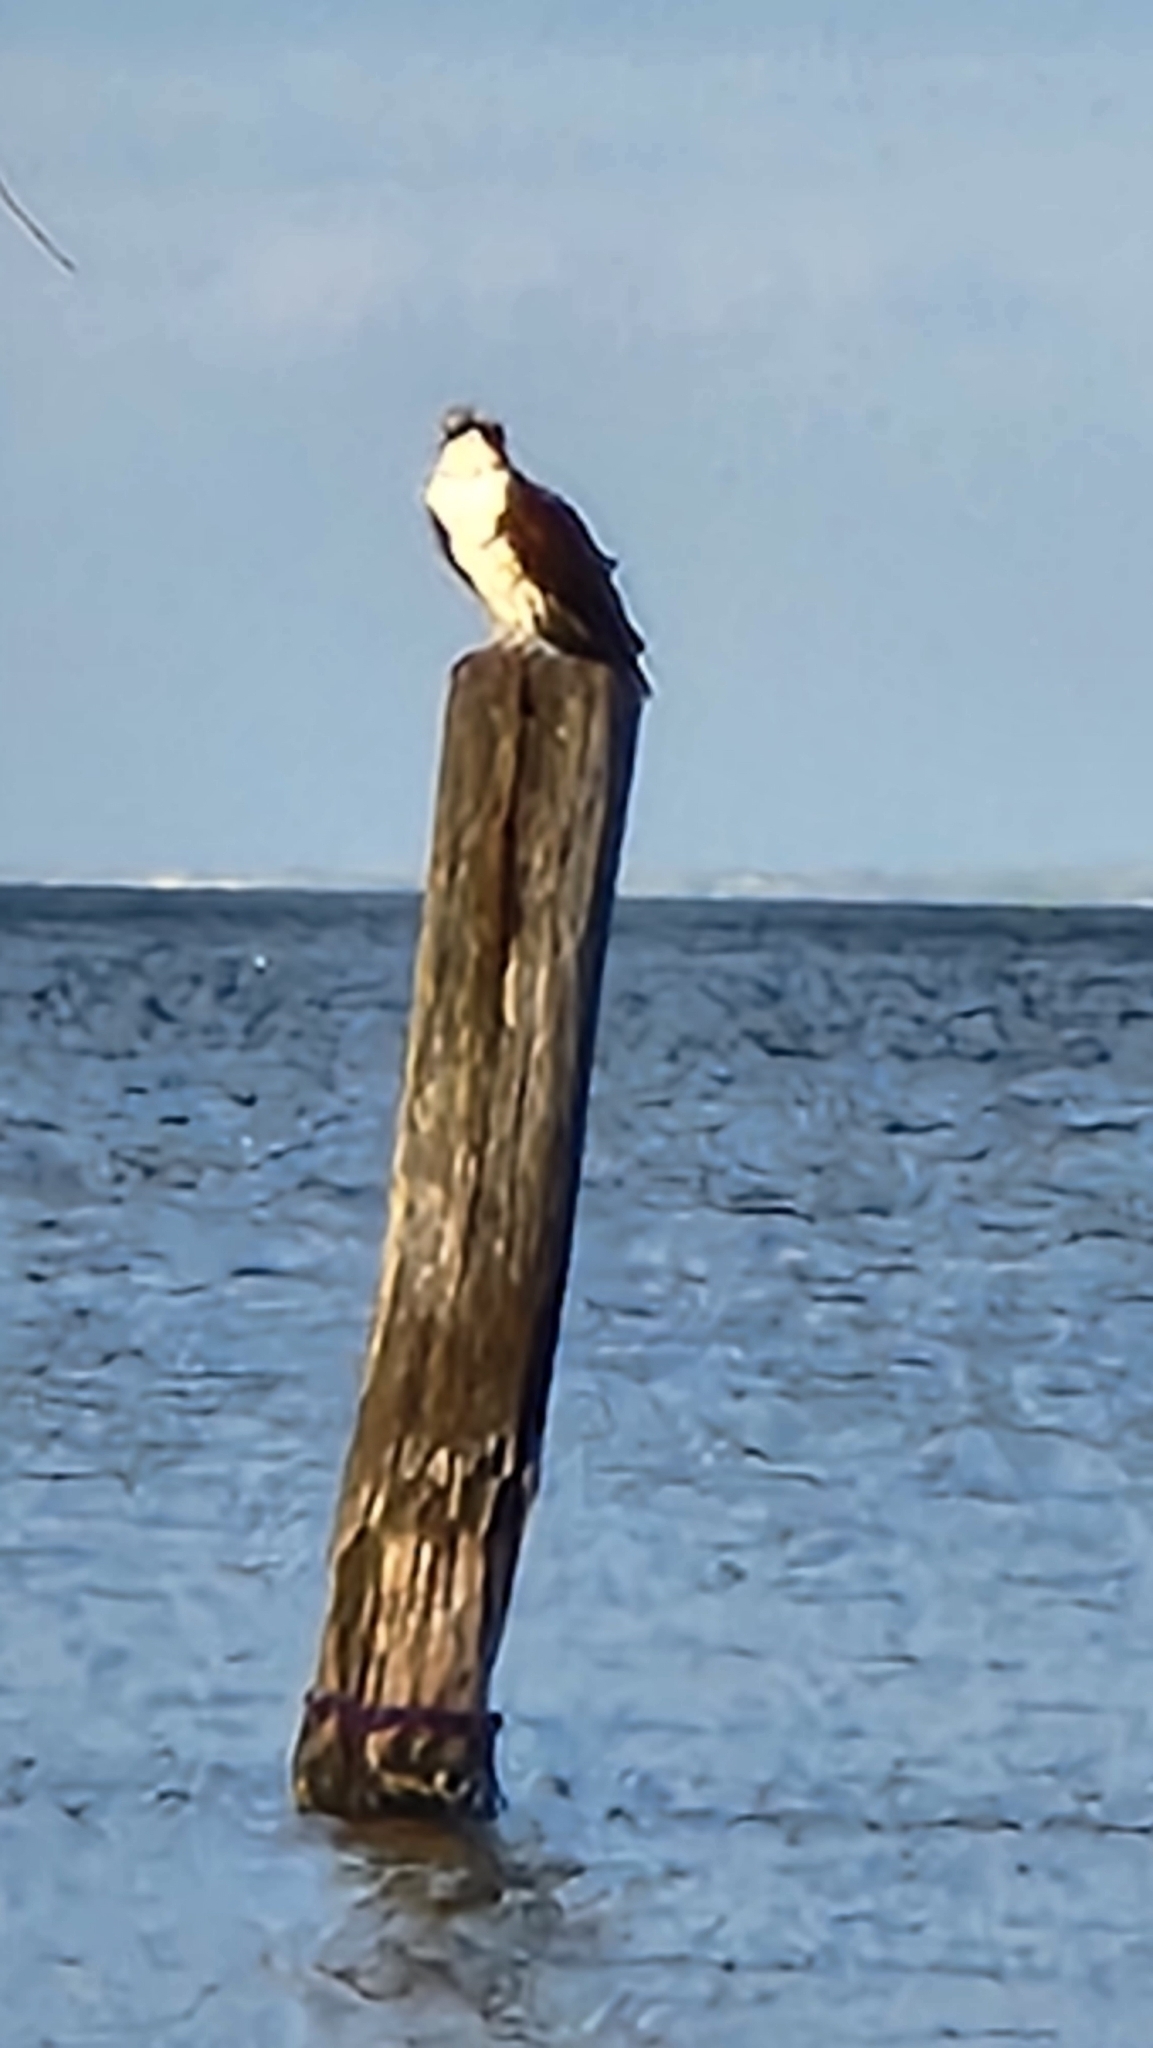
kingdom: Animalia
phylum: Chordata
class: Aves
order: Accipitriformes
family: Pandionidae
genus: Pandion
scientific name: Pandion haliaetus
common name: Osprey
